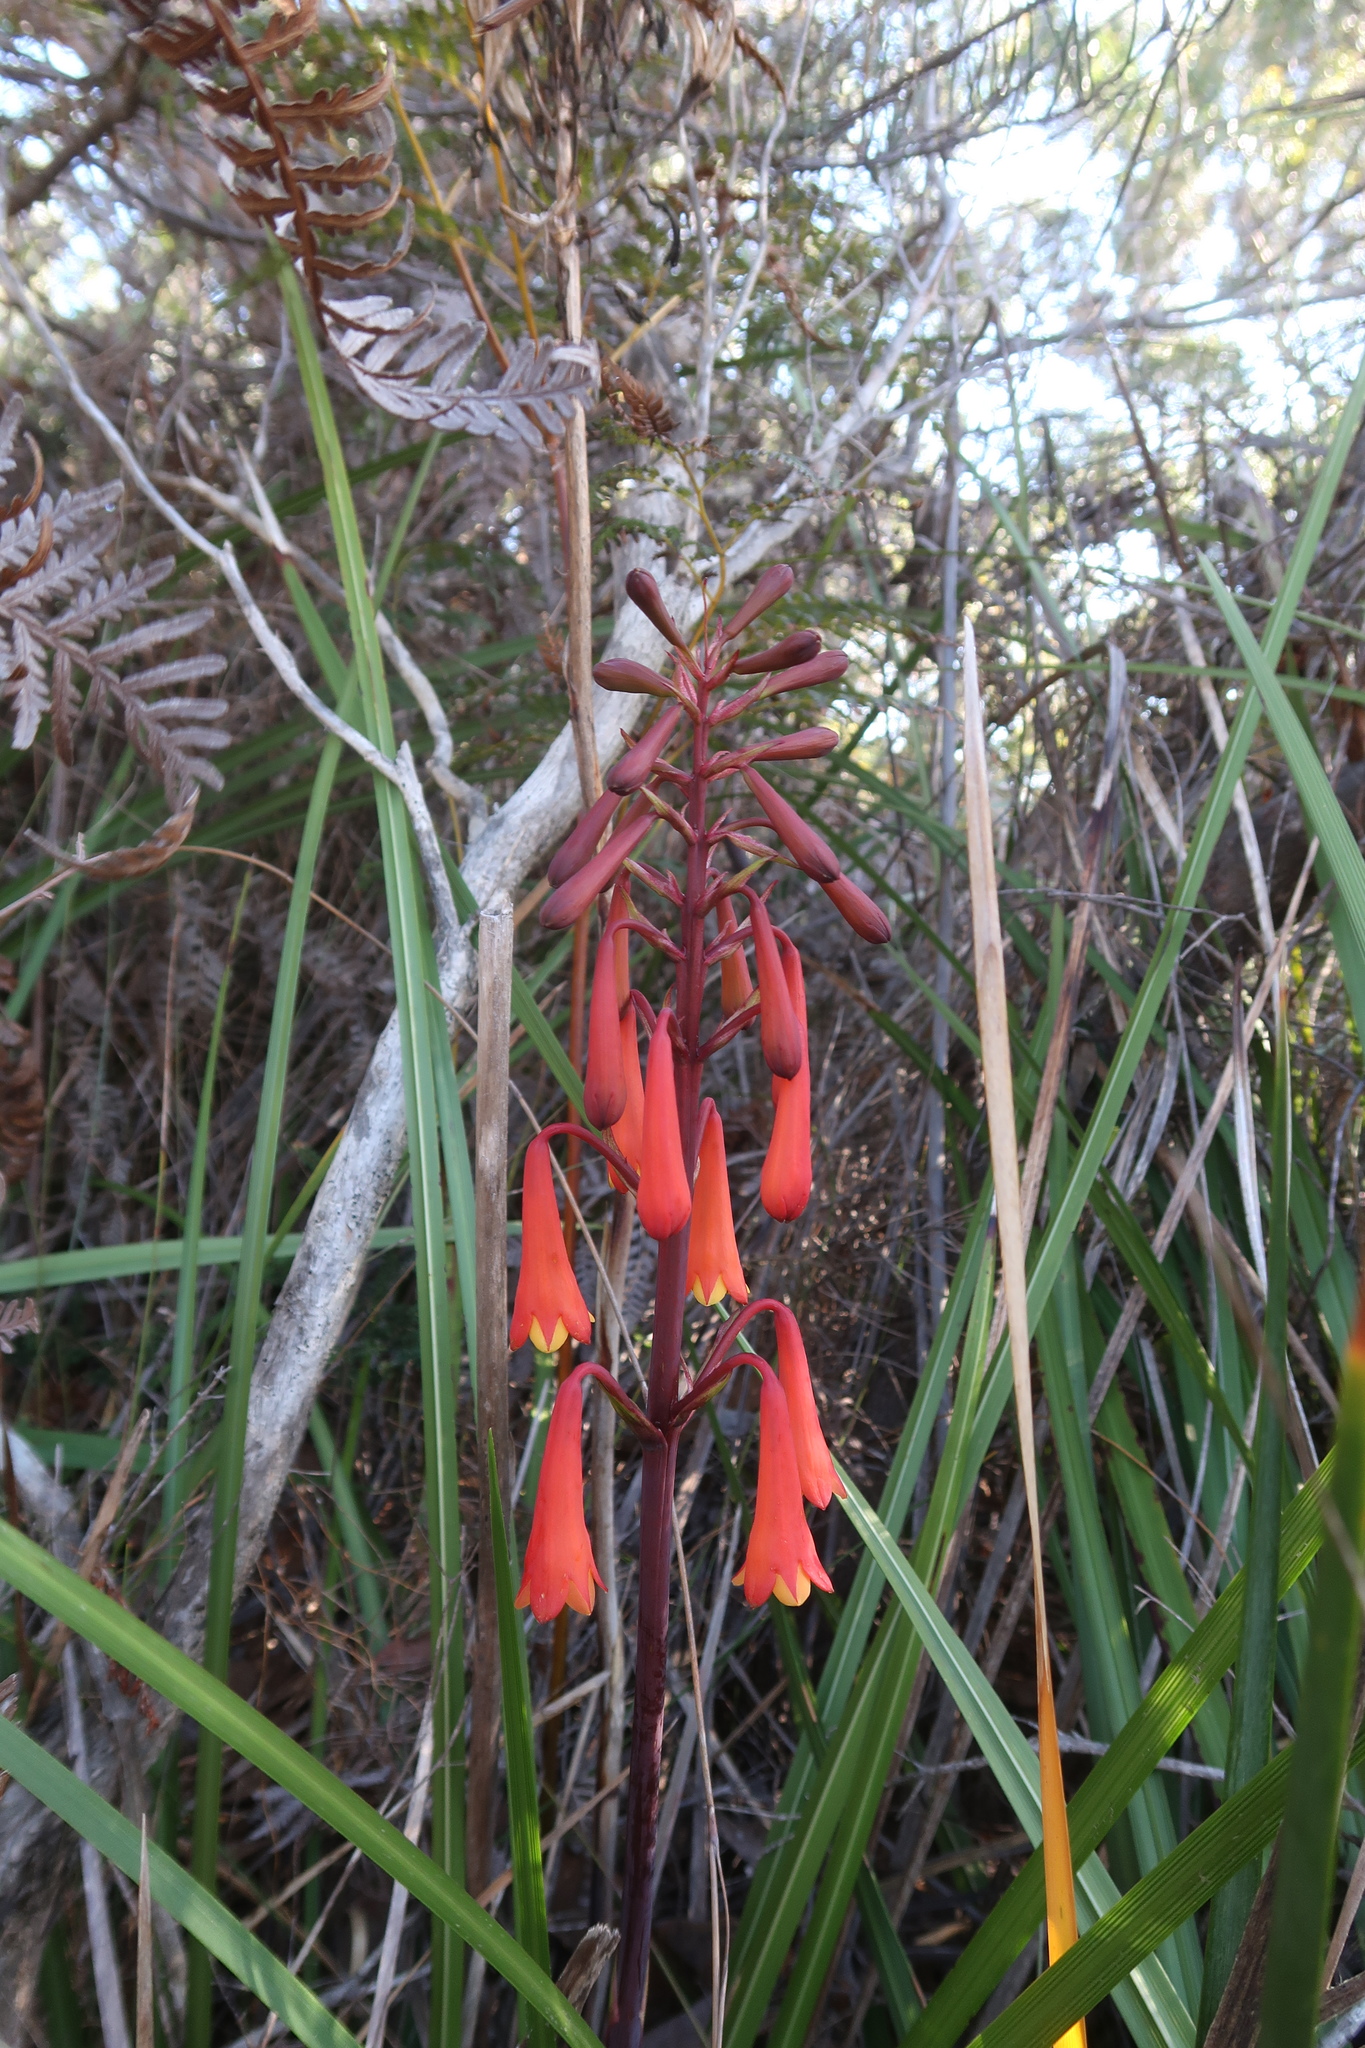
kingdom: Plantae
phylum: Tracheophyta
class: Liliopsida
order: Asparagales
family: Blandfordiaceae
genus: Blandfordia
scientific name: Blandfordia punicea
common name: Tasmanian christmas-bell
